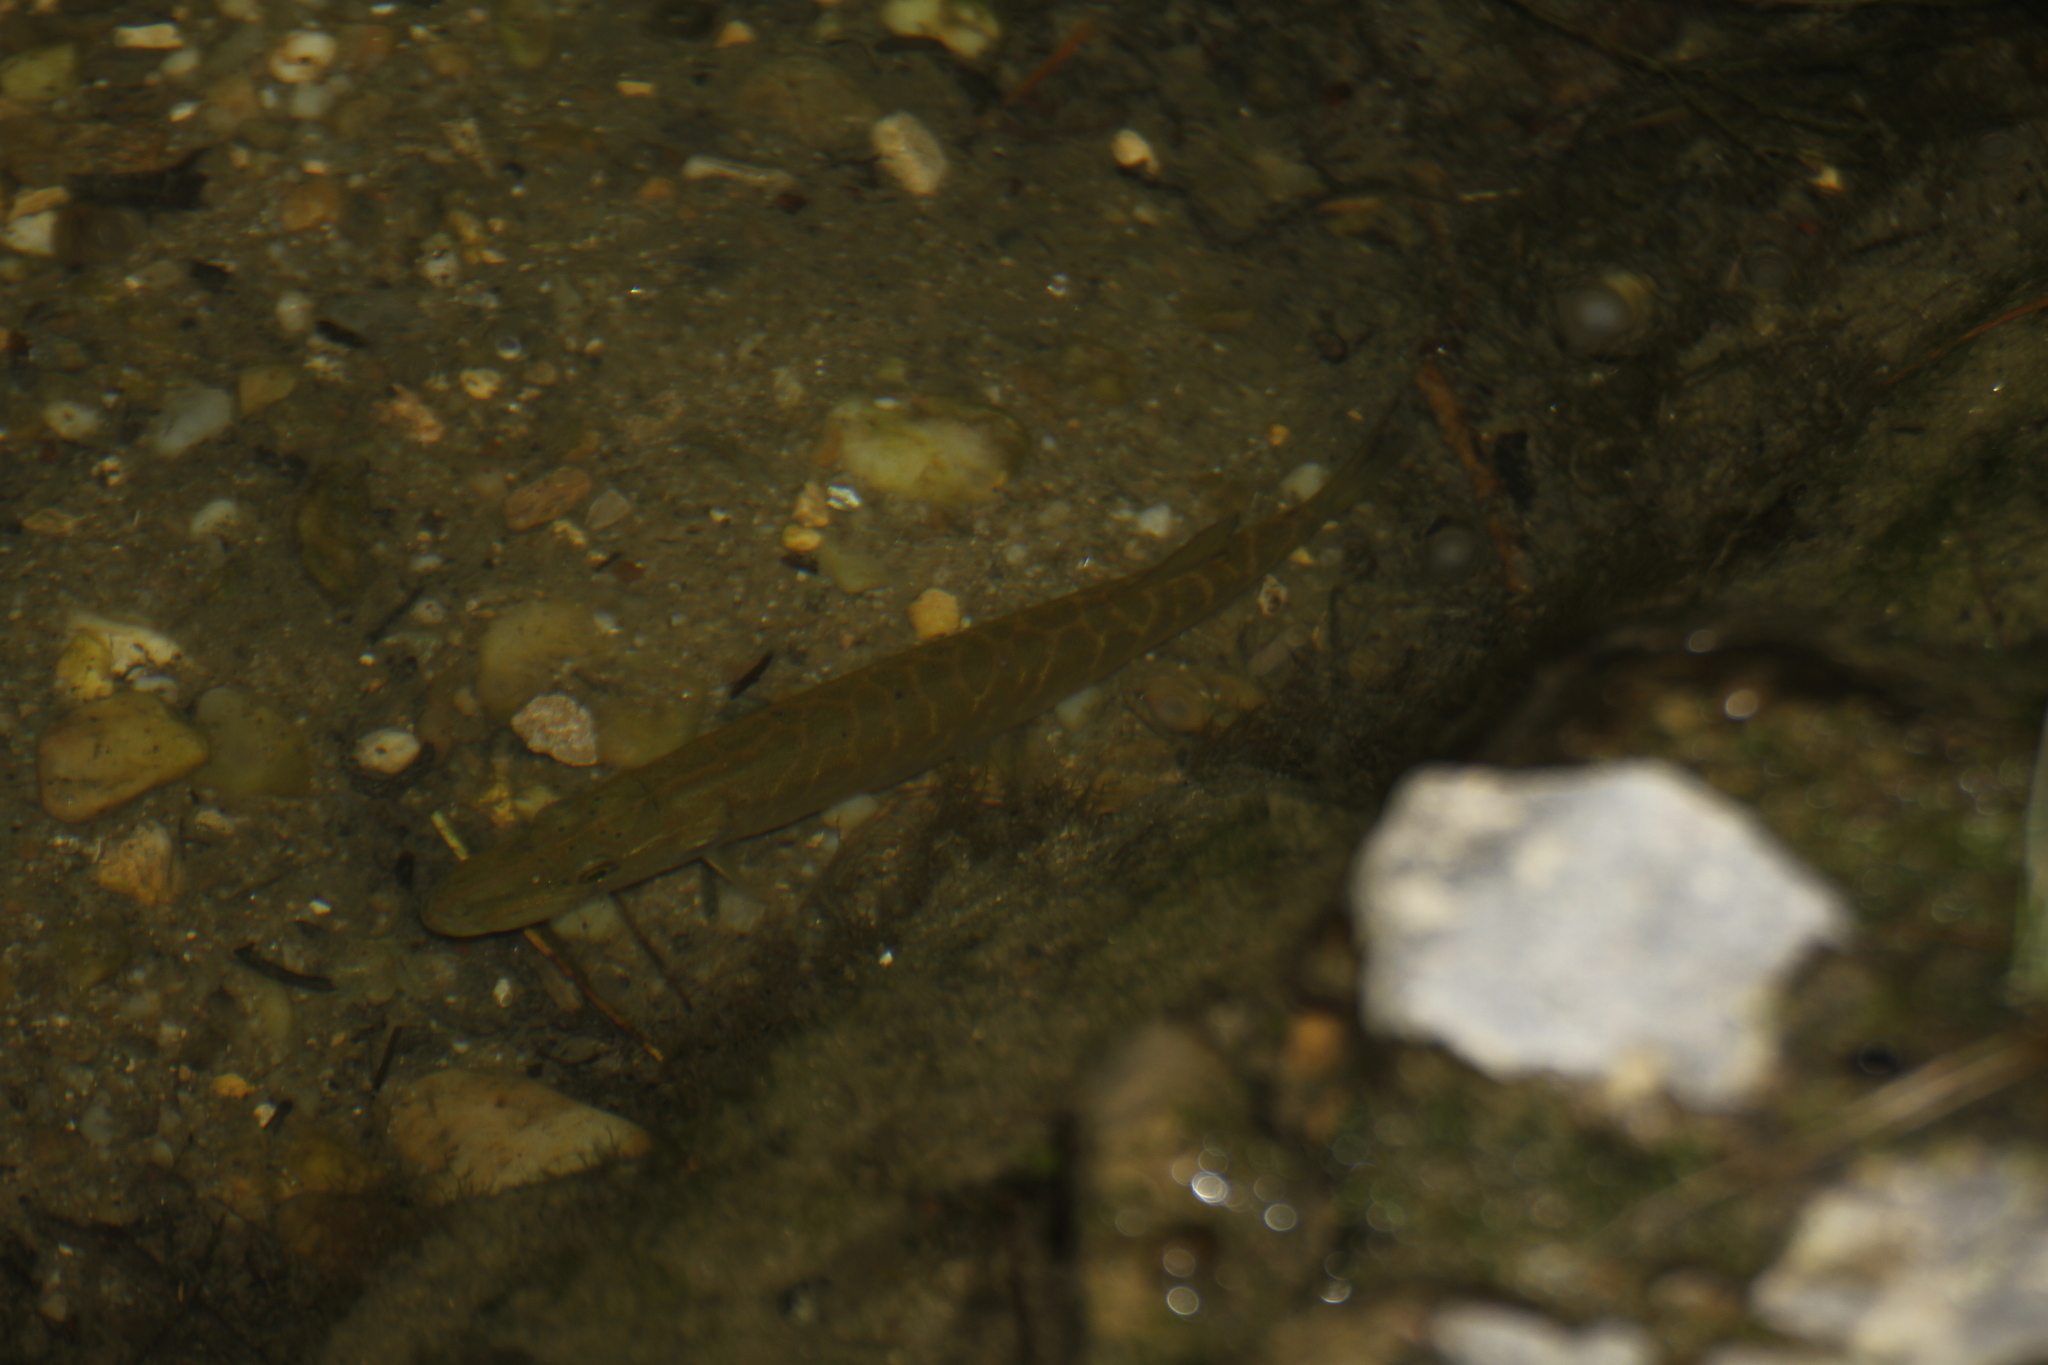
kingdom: Animalia
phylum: Chordata
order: Esociformes
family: Esocidae
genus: Esox
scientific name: Esox lucius
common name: Northern pike
